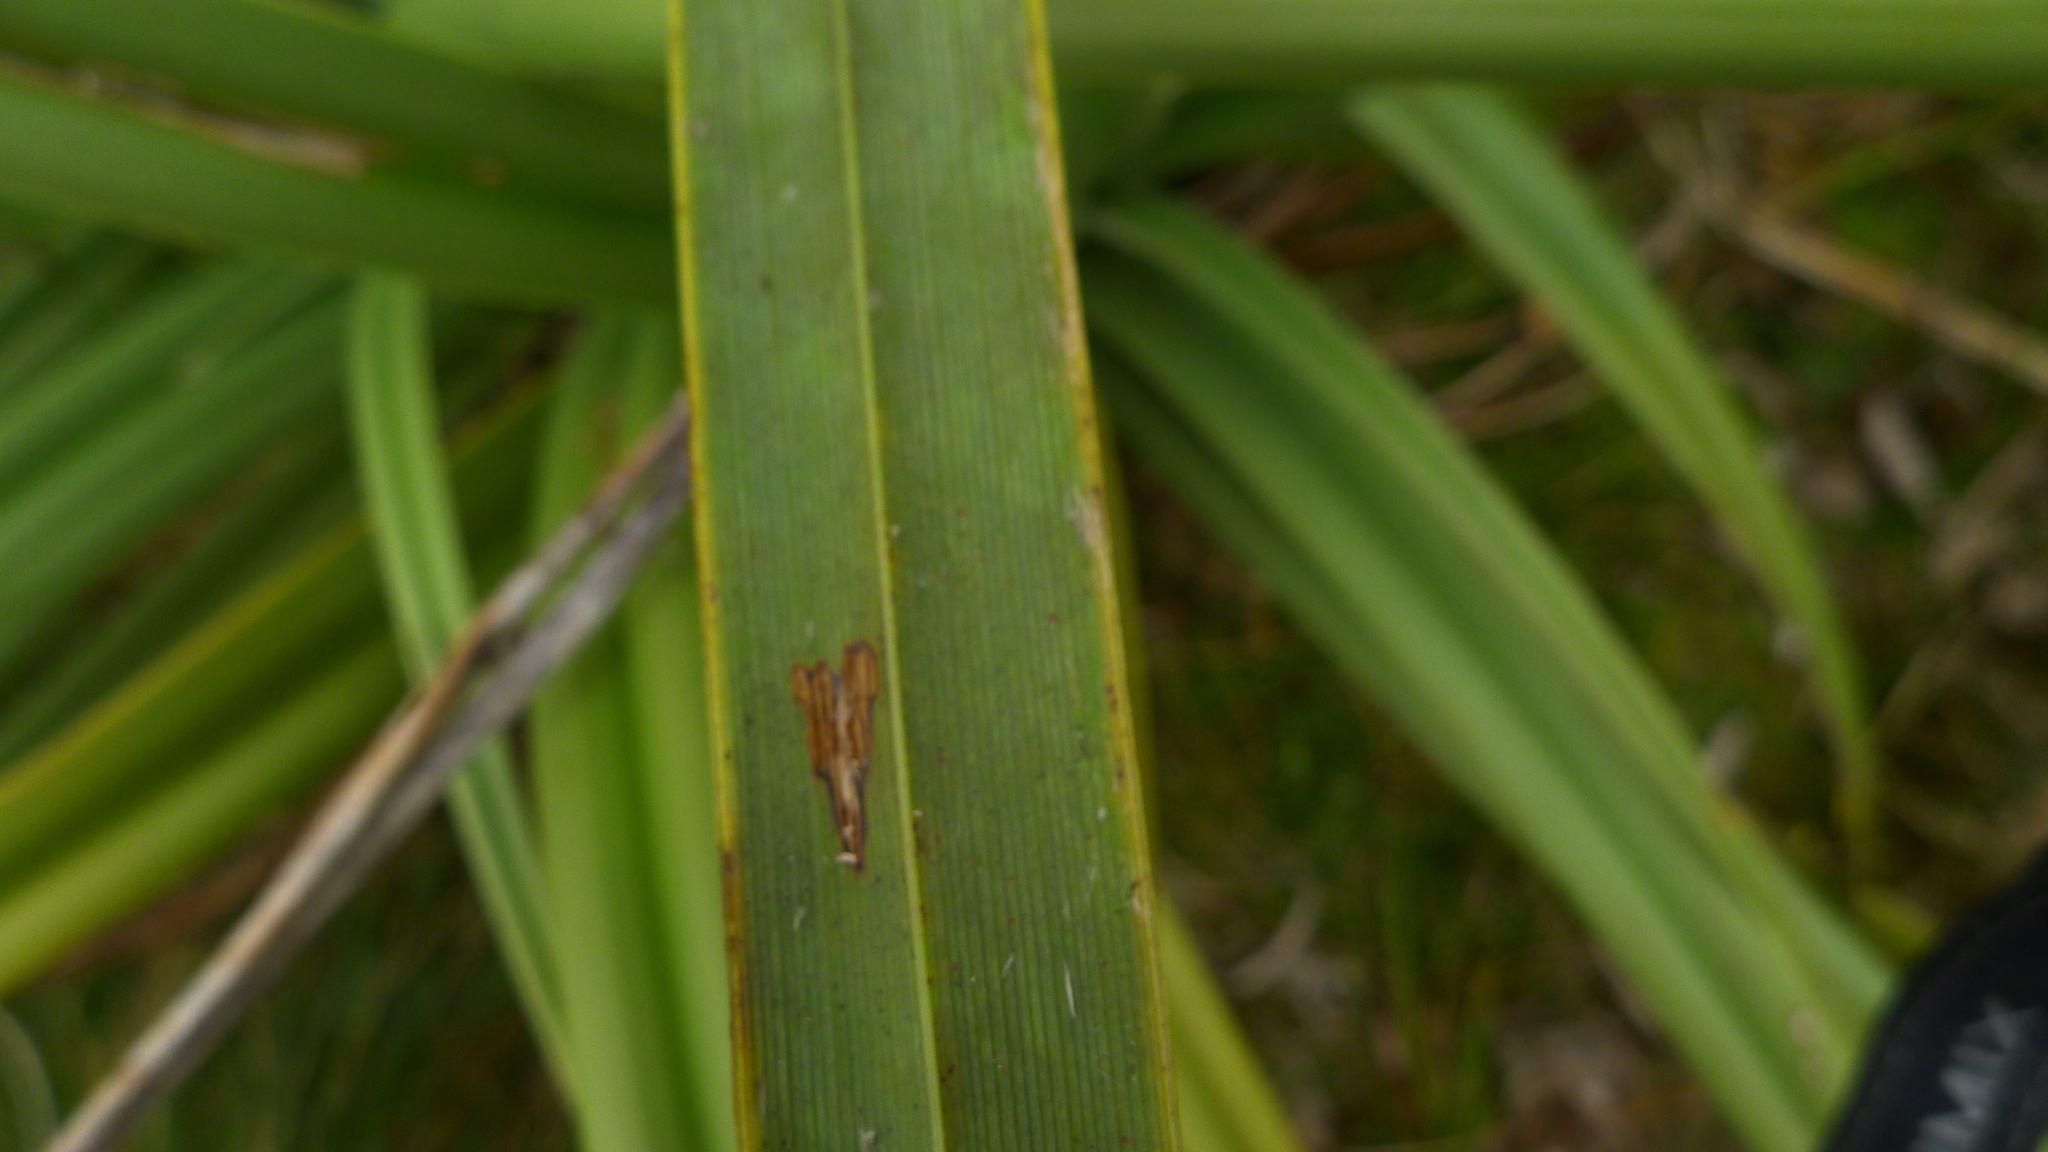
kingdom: Plantae
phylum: Tracheophyta
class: Liliopsida
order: Asparagales
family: Asteliaceae
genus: Astelia
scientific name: Astelia skottsbergii
